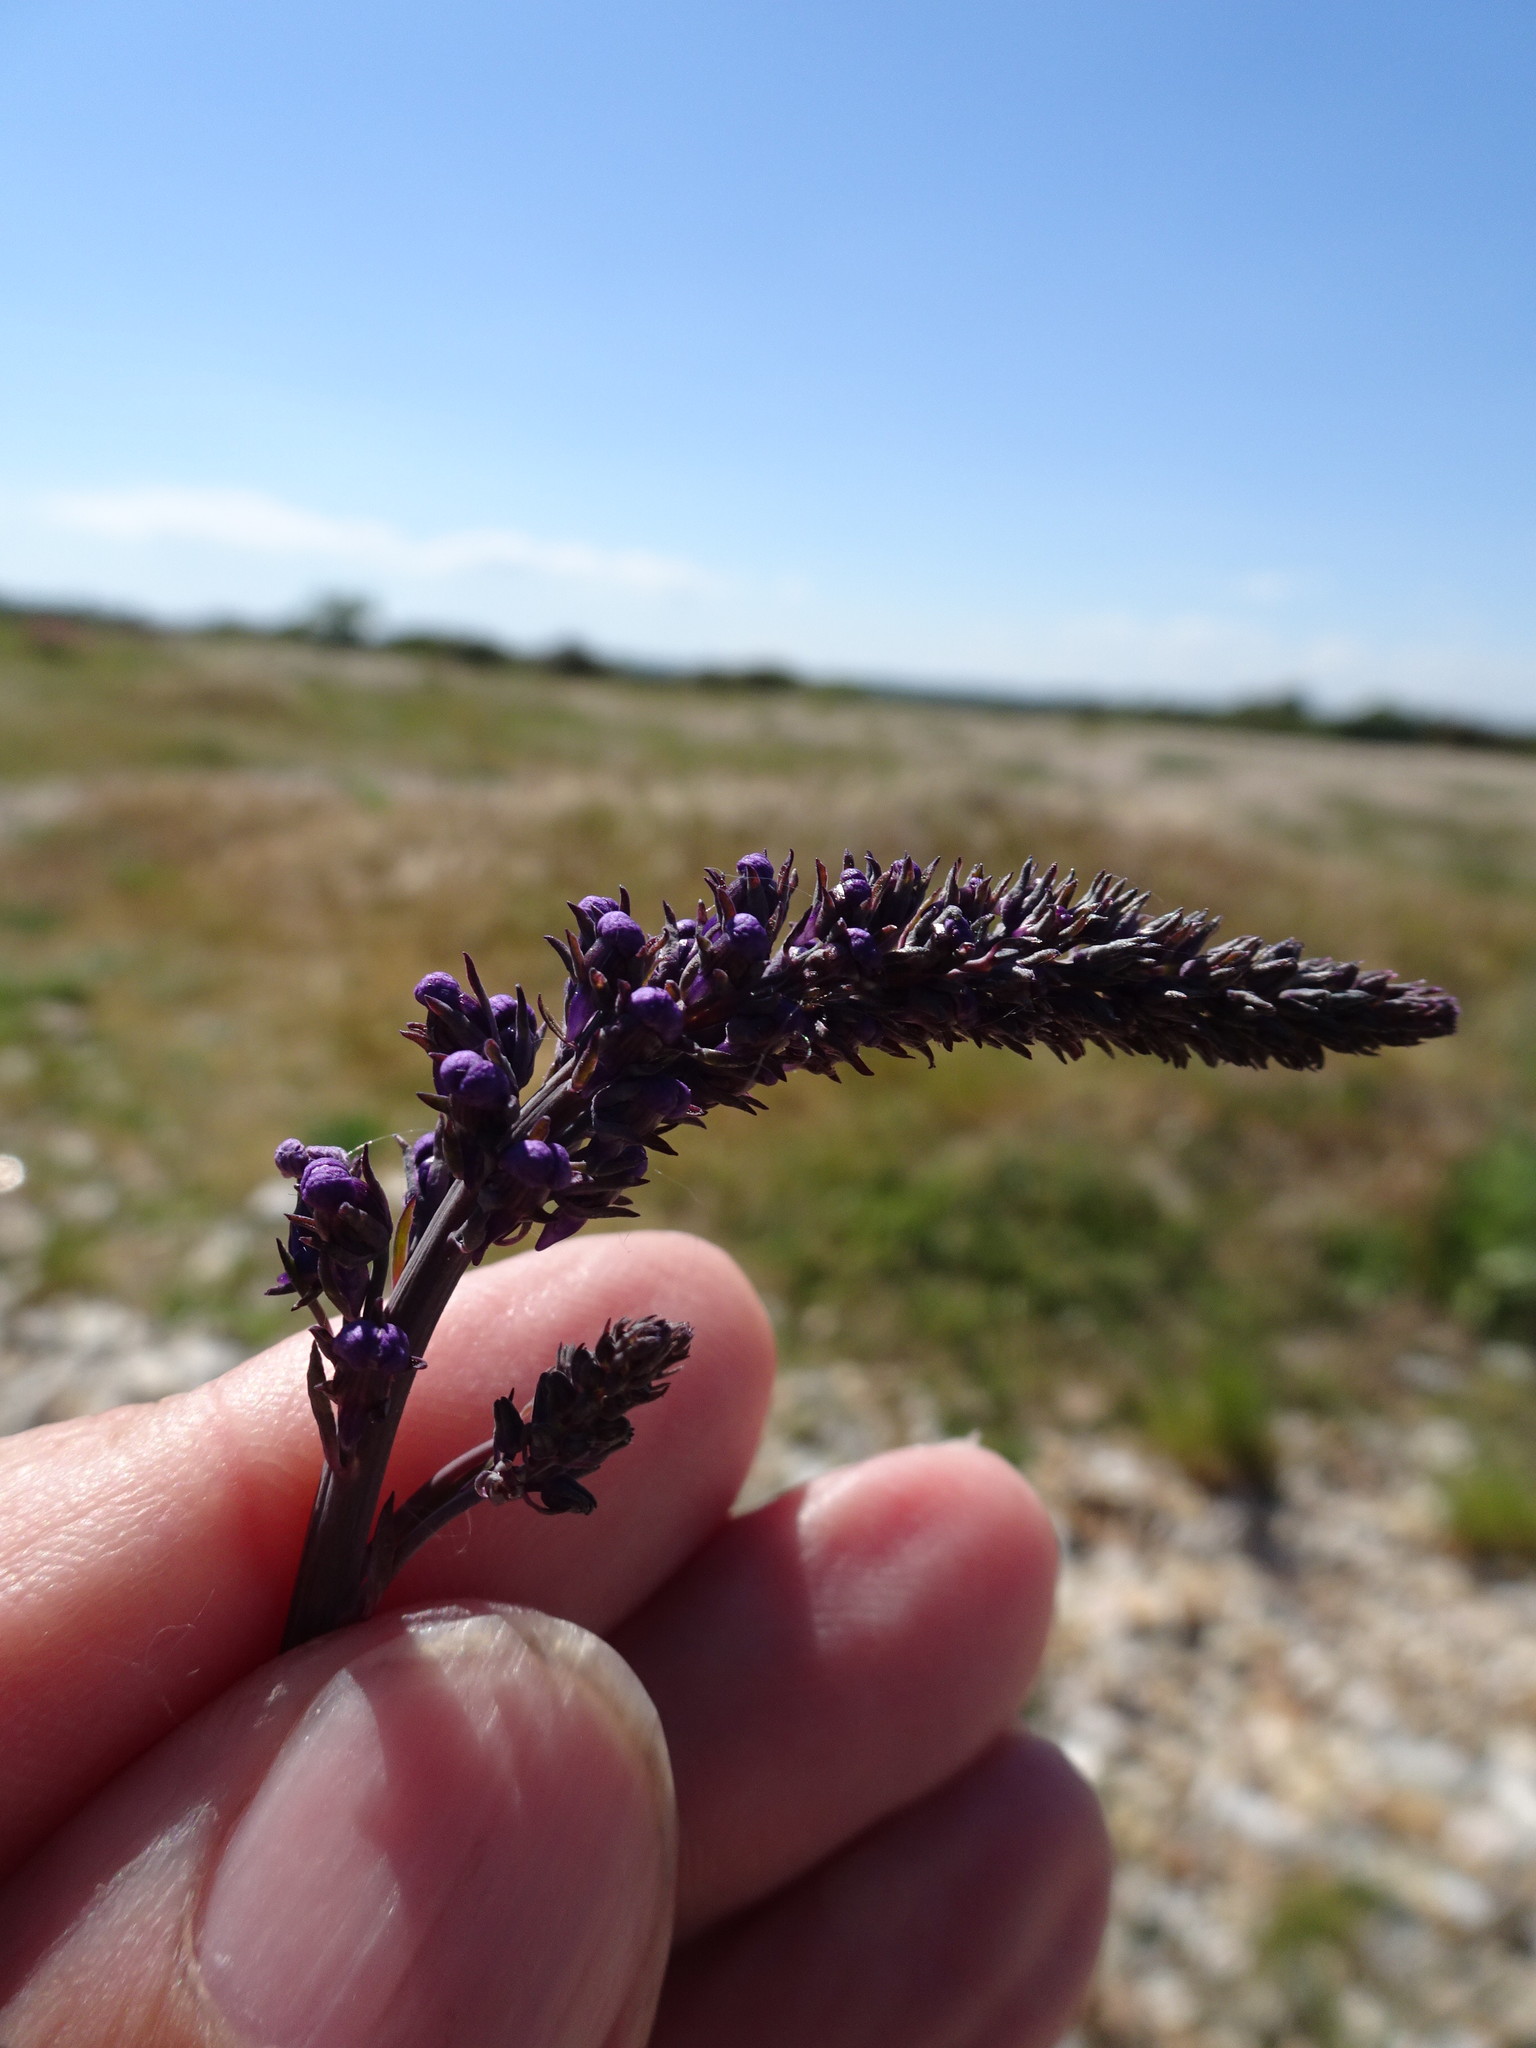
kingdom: Plantae
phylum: Tracheophyta
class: Magnoliopsida
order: Lamiales
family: Plantaginaceae
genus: Linaria
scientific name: Linaria purpurea
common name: Purple toadflax
